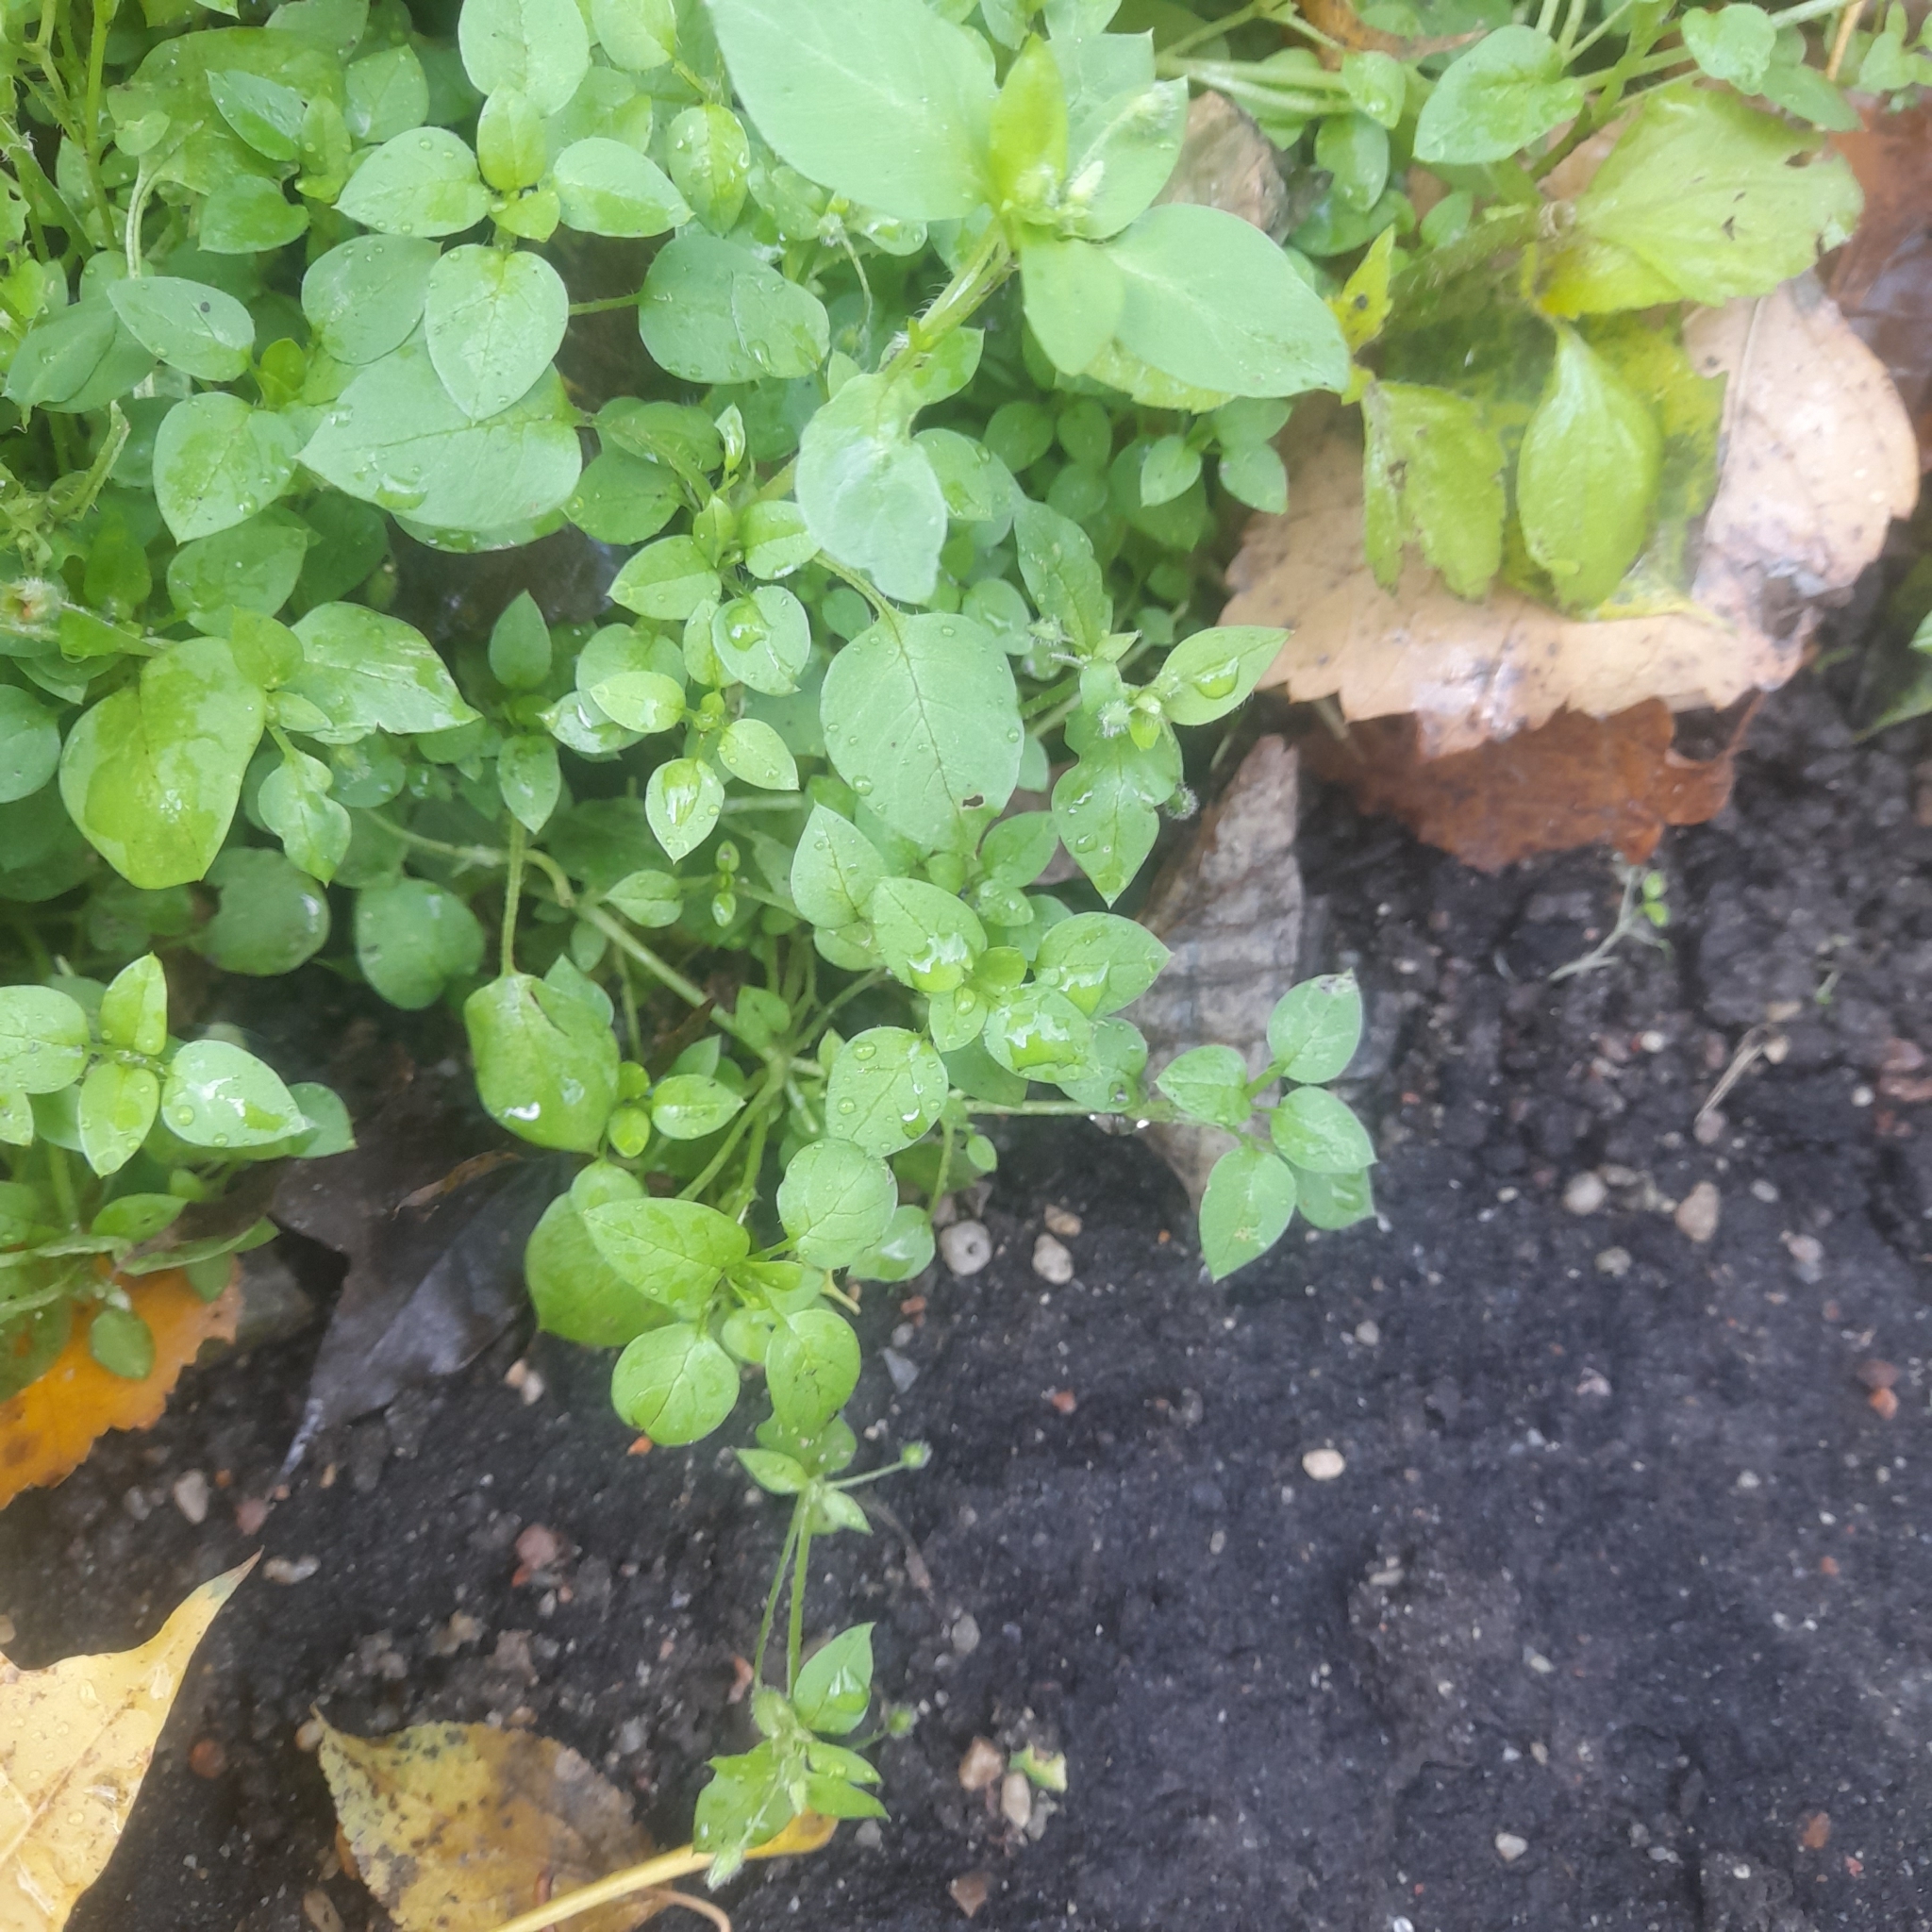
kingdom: Plantae
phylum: Tracheophyta
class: Magnoliopsida
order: Caryophyllales
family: Caryophyllaceae
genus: Stellaria
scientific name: Stellaria media
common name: Common chickweed
